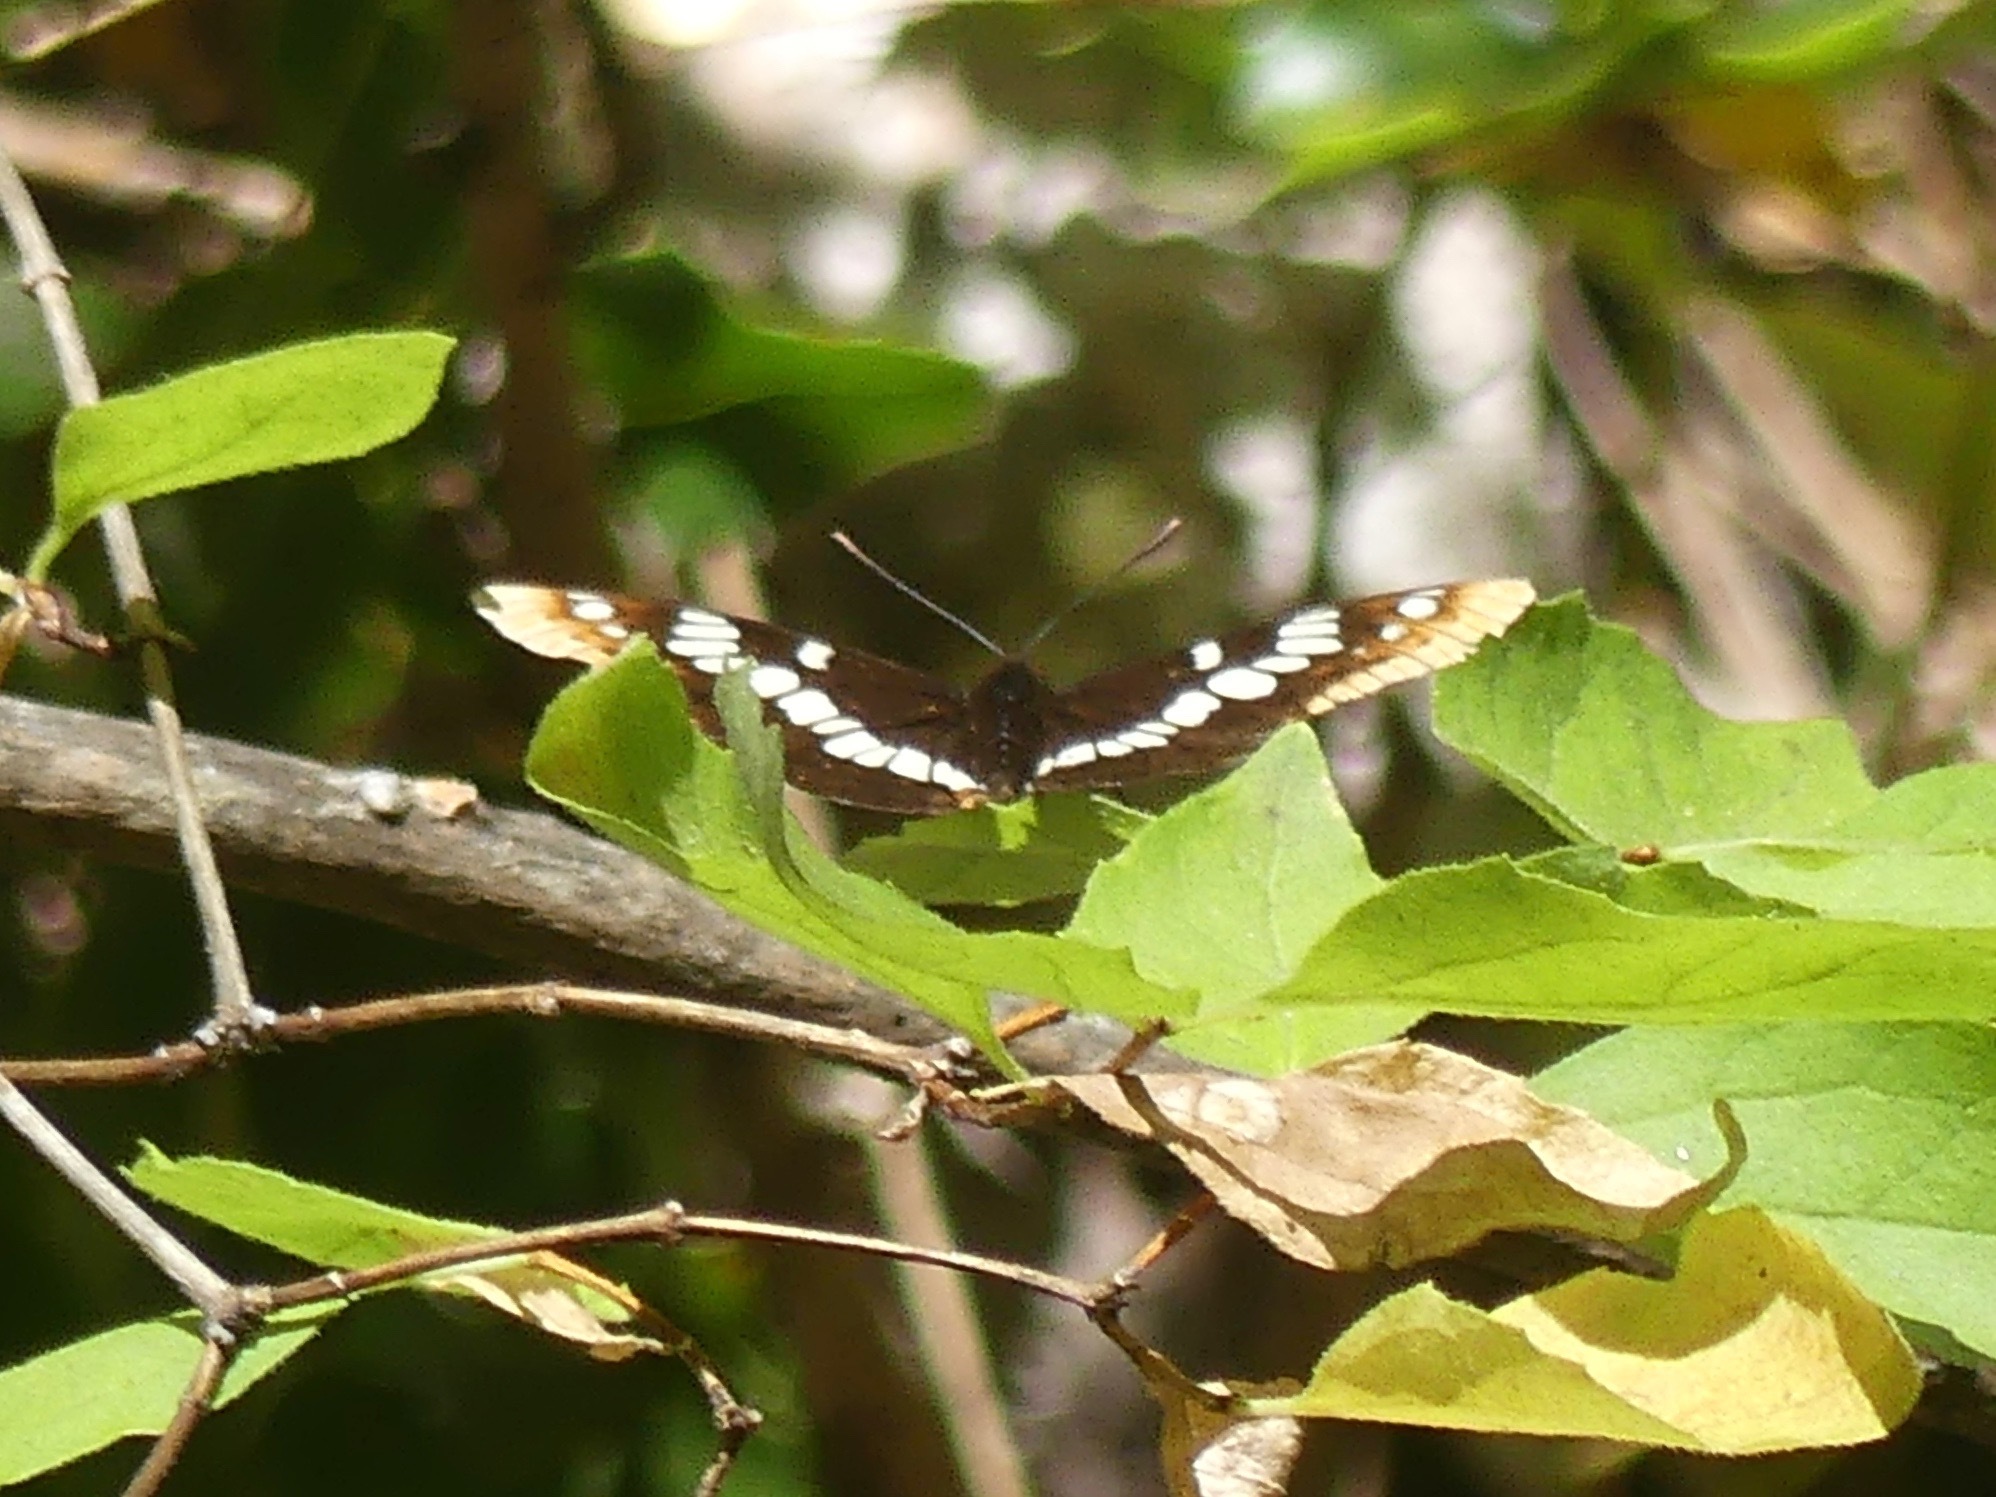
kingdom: Animalia
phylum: Arthropoda
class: Insecta
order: Lepidoptera
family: Nymphalidae
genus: Limenitis
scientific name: Limenitis lorquini
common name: Lorquin's admiral
